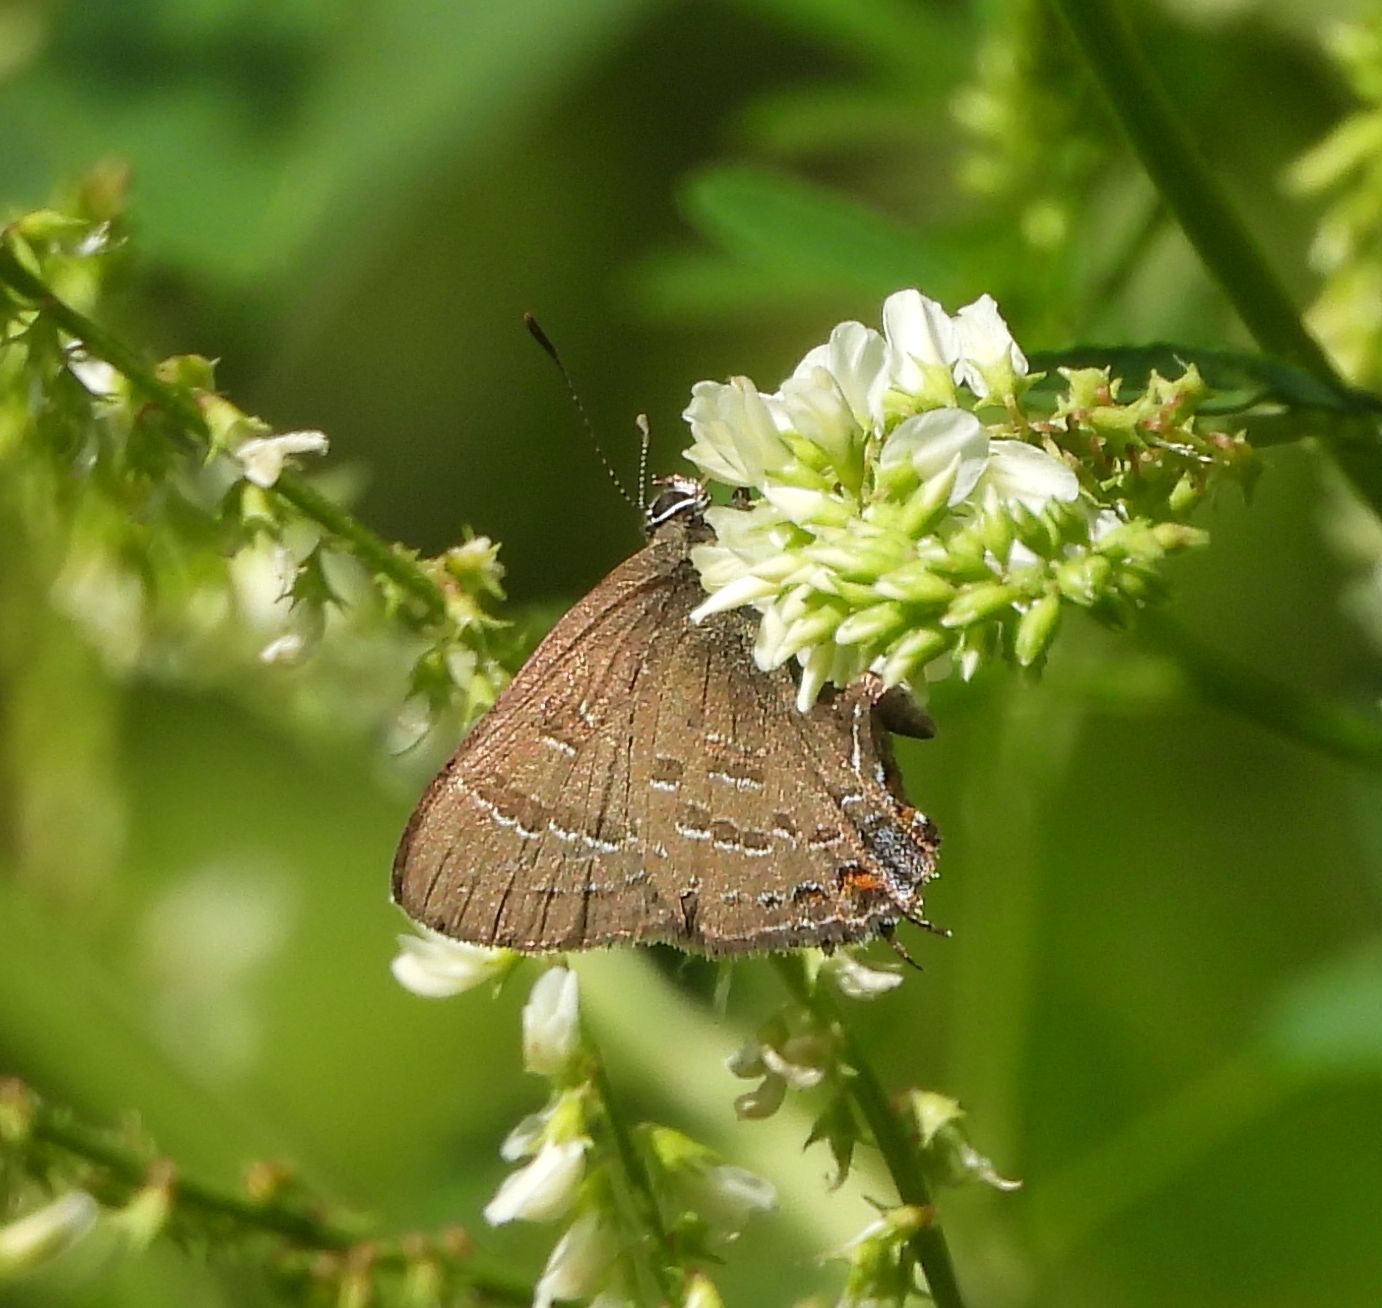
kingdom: Animalia
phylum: Arthropoda
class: Insecta
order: Lepidoptera
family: Lycaenidae
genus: Satyrium
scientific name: Satyrium calanus
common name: Banded hairstreak
